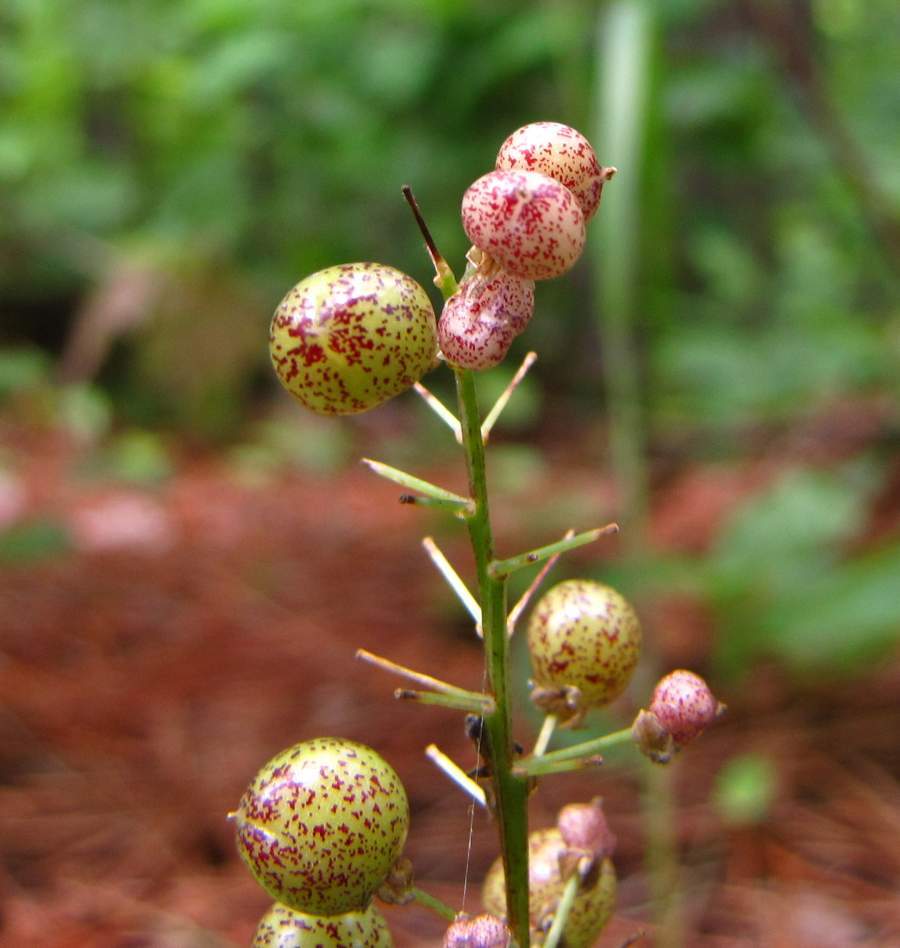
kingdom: Plantae
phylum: Tracheophyta
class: Liliopsida
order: Asparagales
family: Asparagaceae
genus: Maianthemum
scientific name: Maianthemum canadense
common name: False lily-of-the-valley
